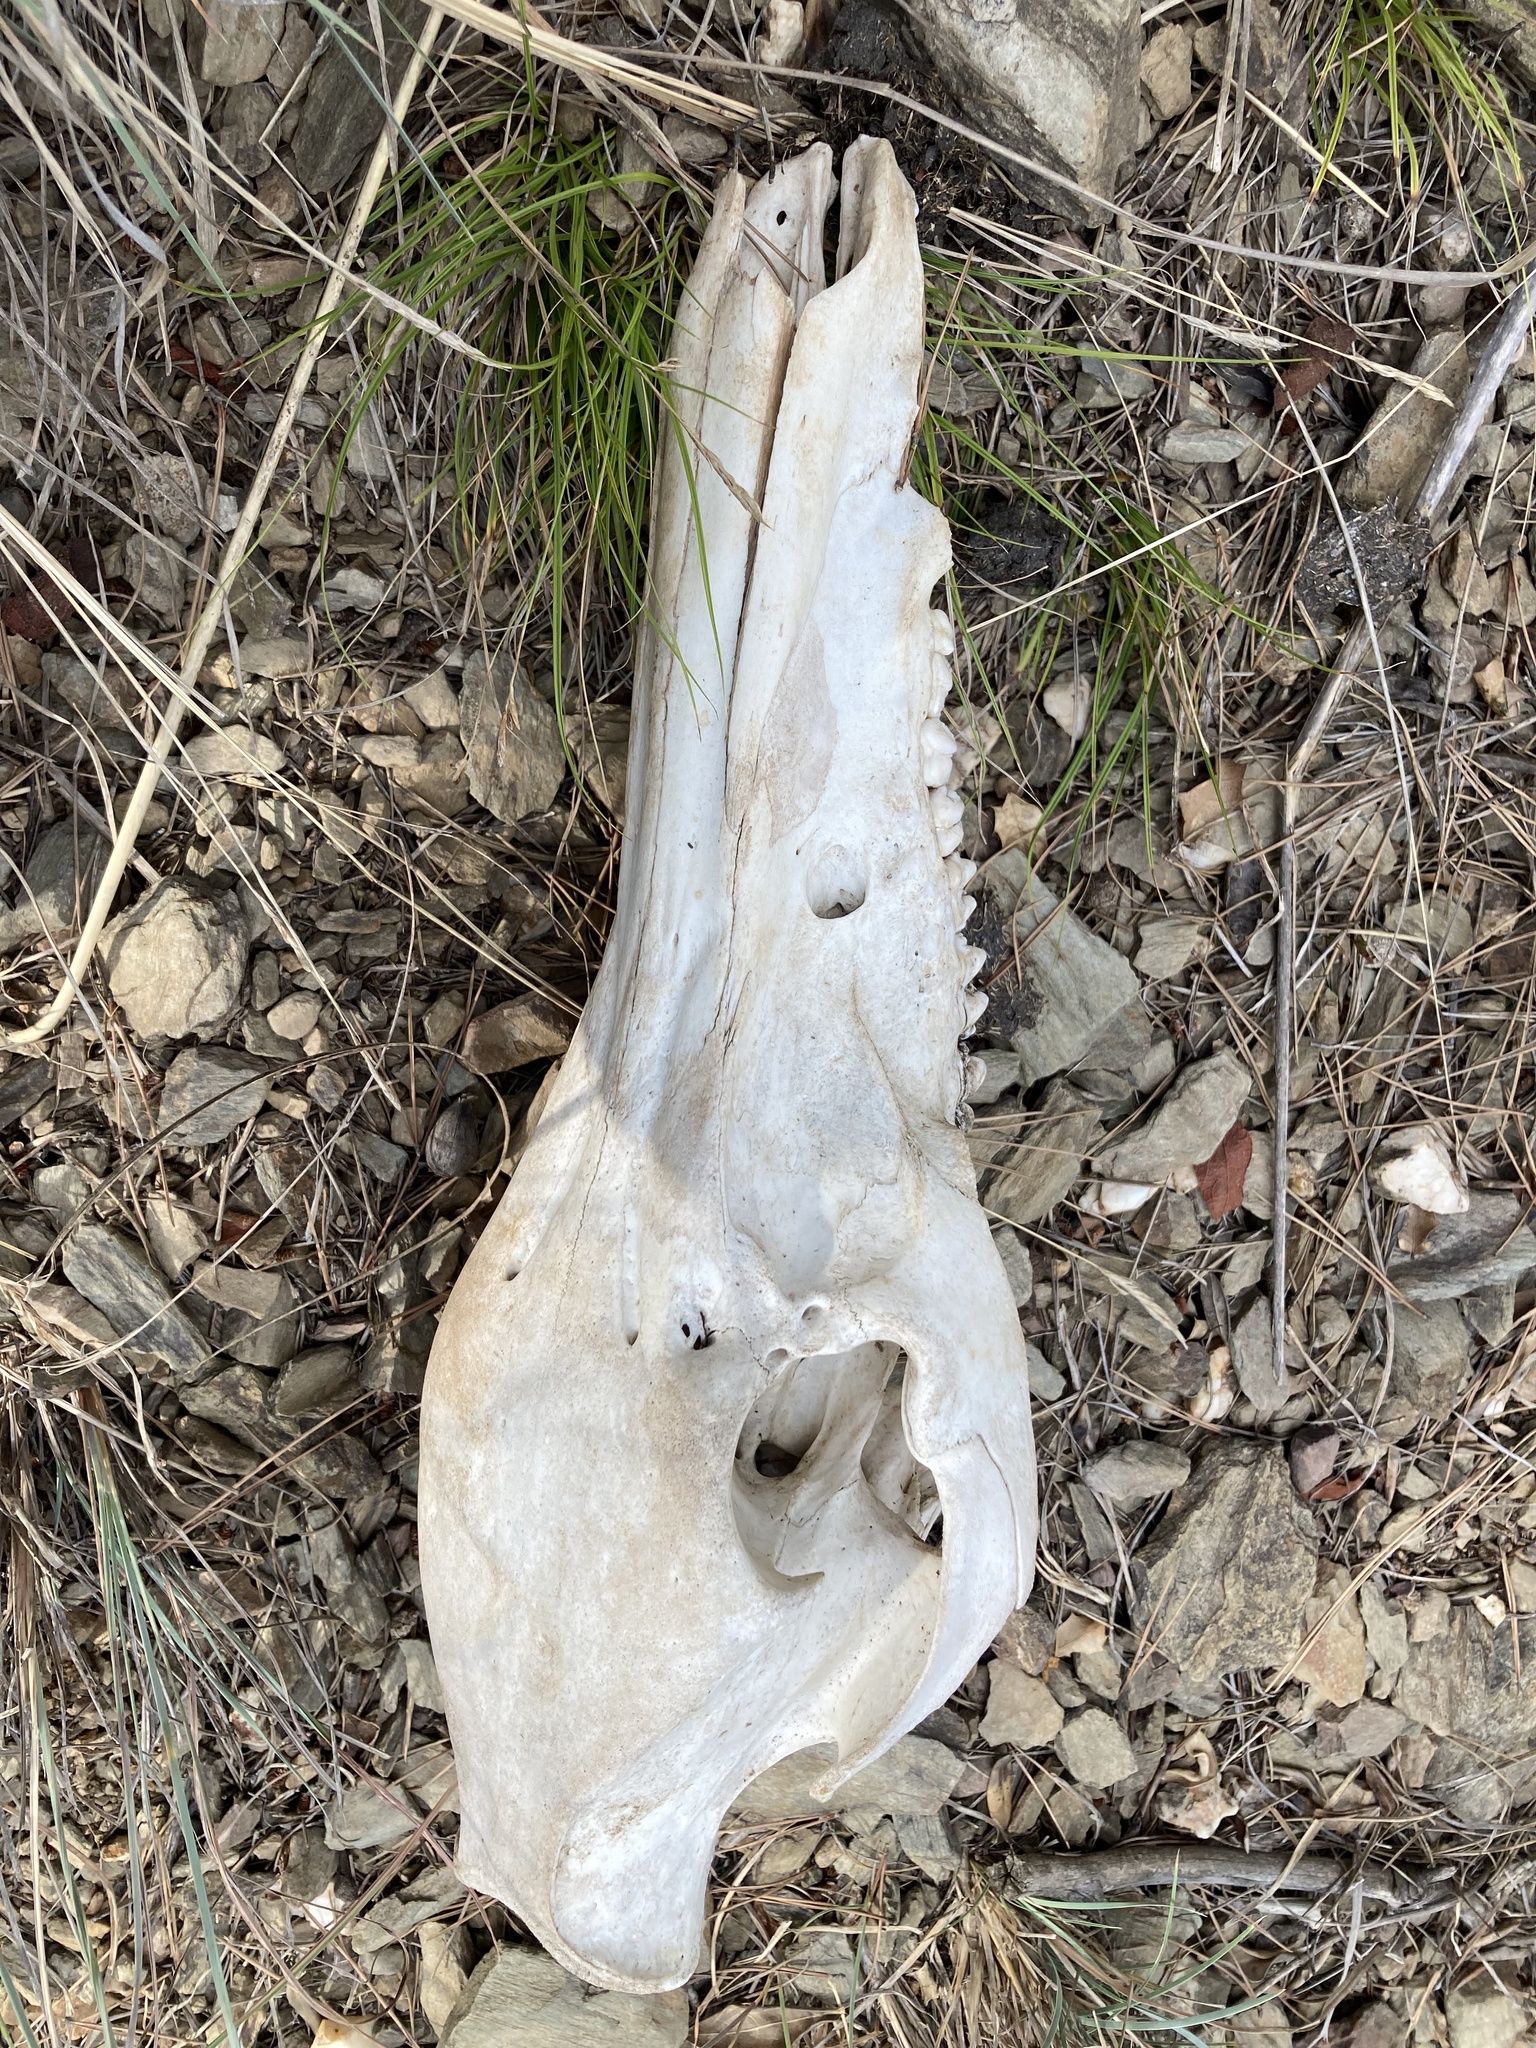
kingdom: Animalia
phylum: Chordata
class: Mammalia
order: Artiodactyla
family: Suidae
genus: Sus
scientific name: Sus scrofa
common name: Wild boar
